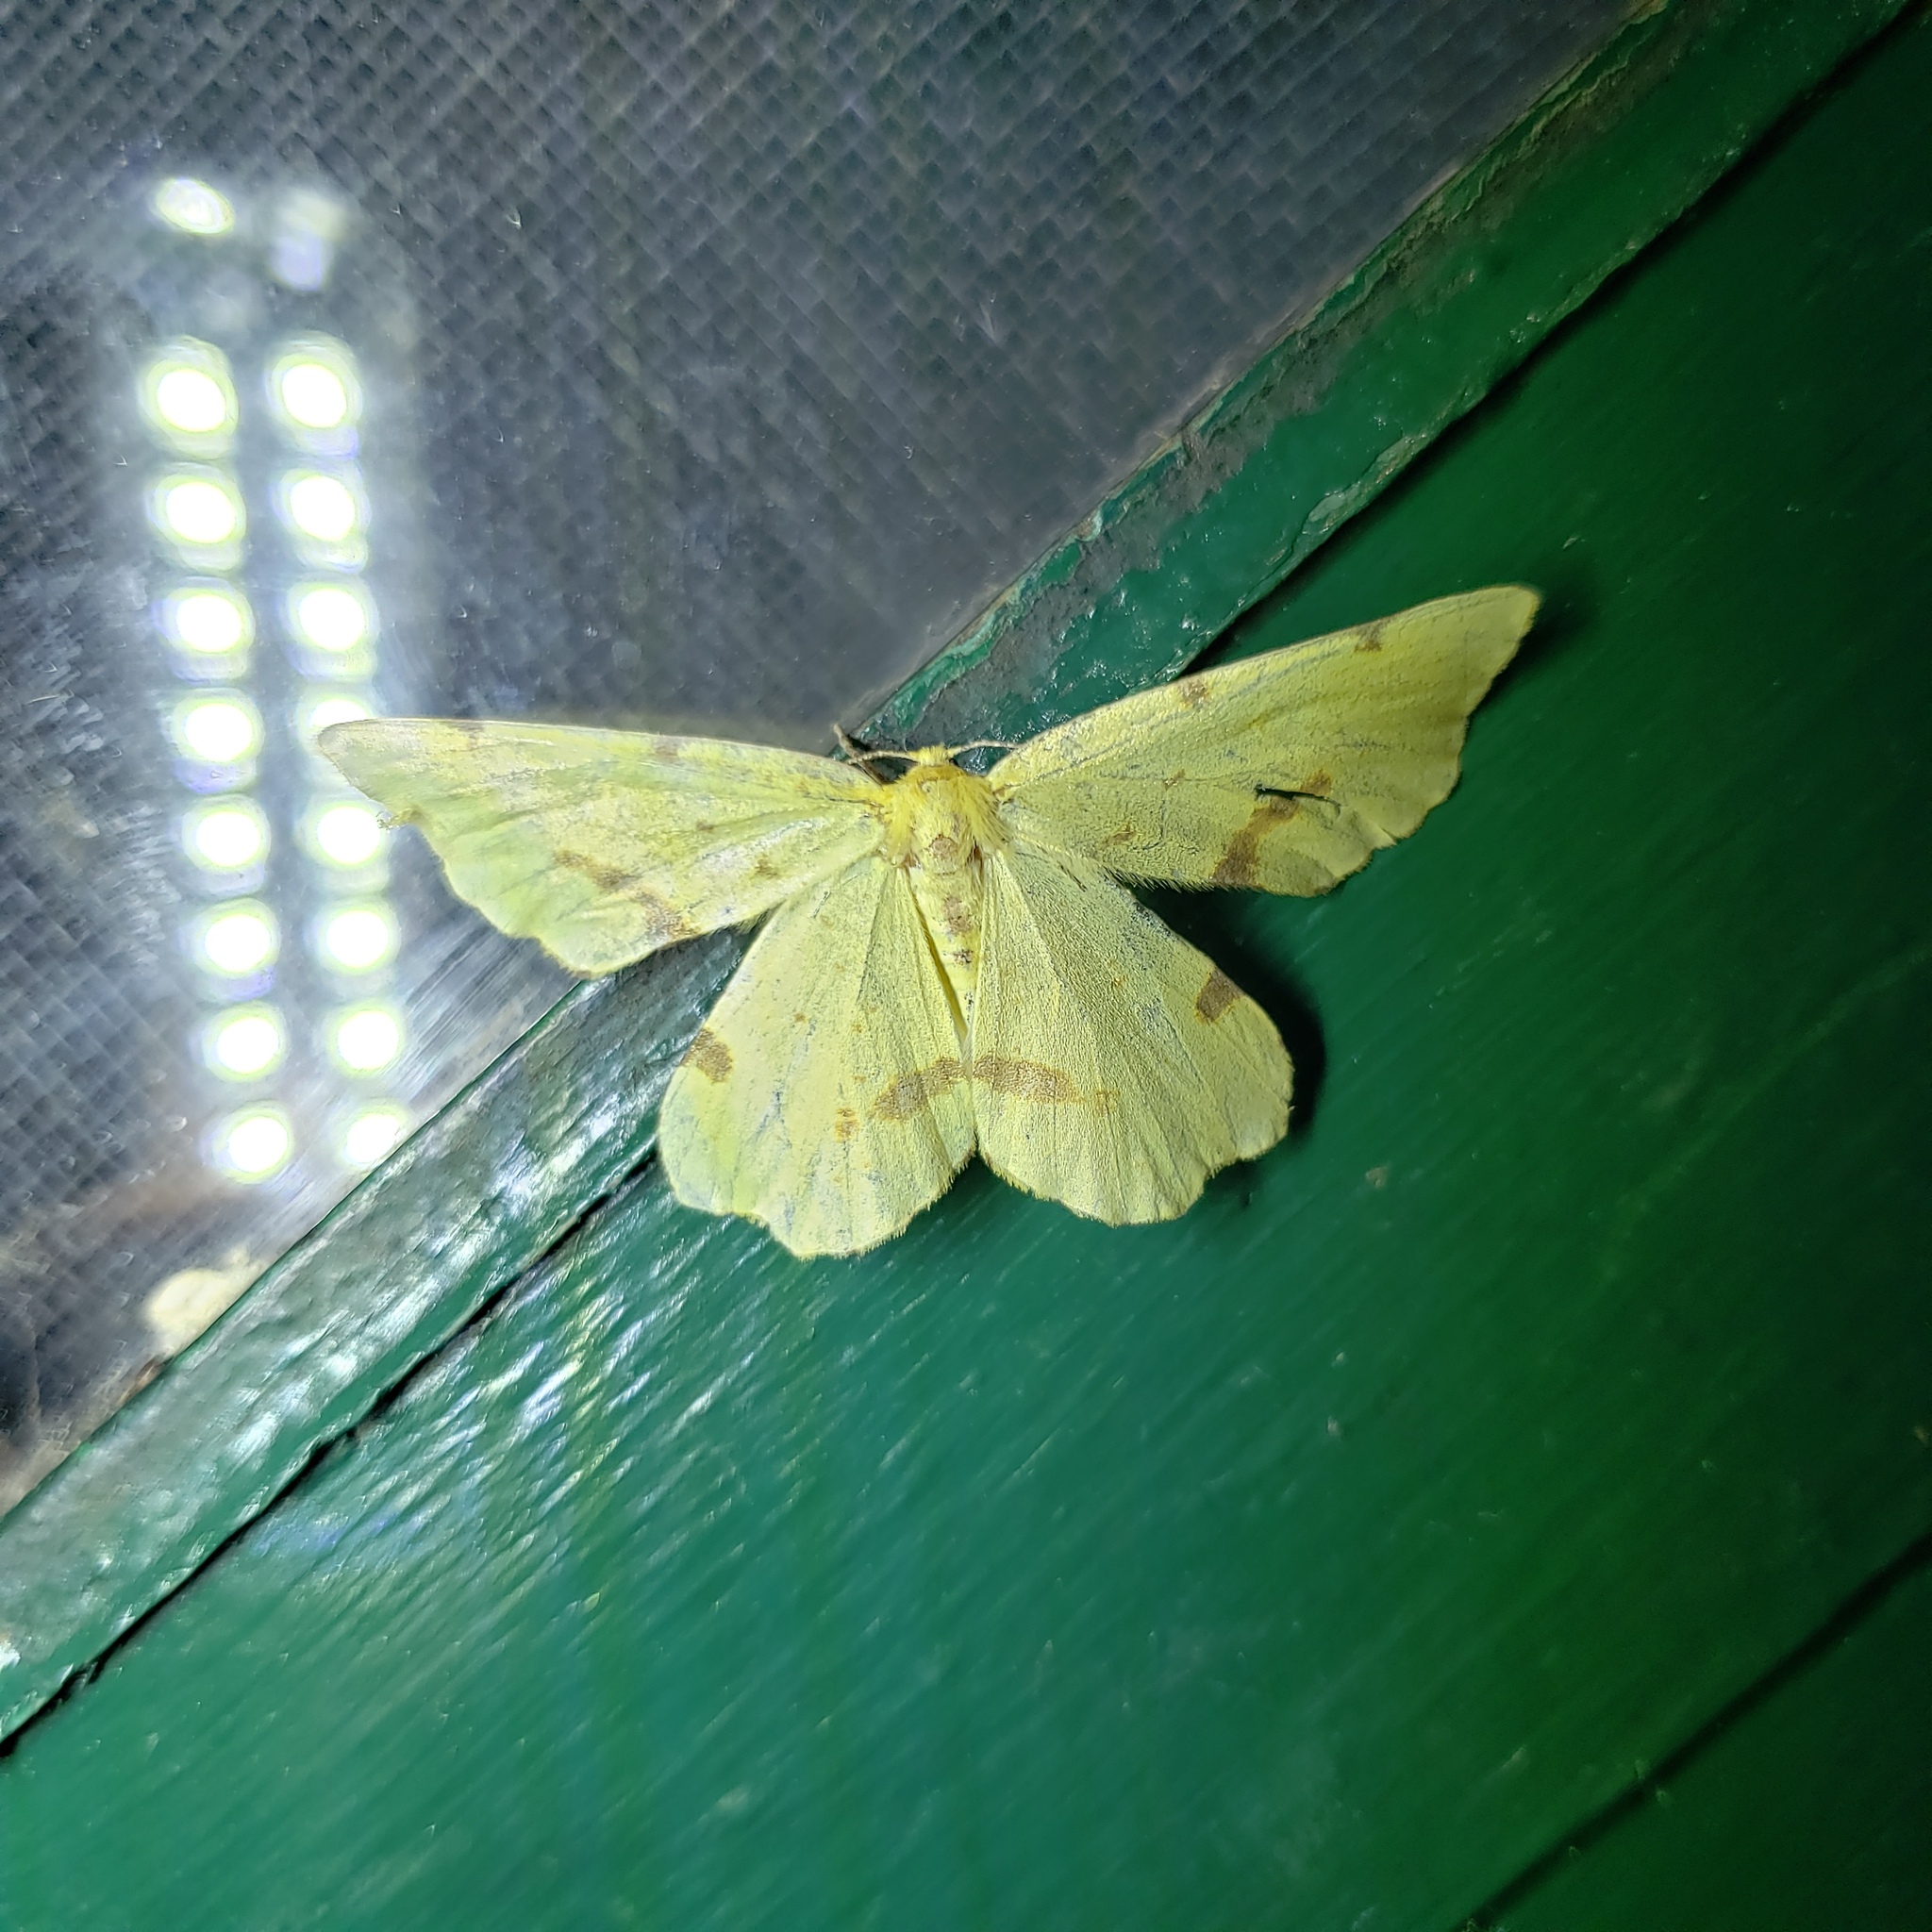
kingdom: Animalia
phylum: Arthropoda
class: Insecta
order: Lepidoptera
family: Geometridae
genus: Xanthotype
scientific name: Xanthotype
